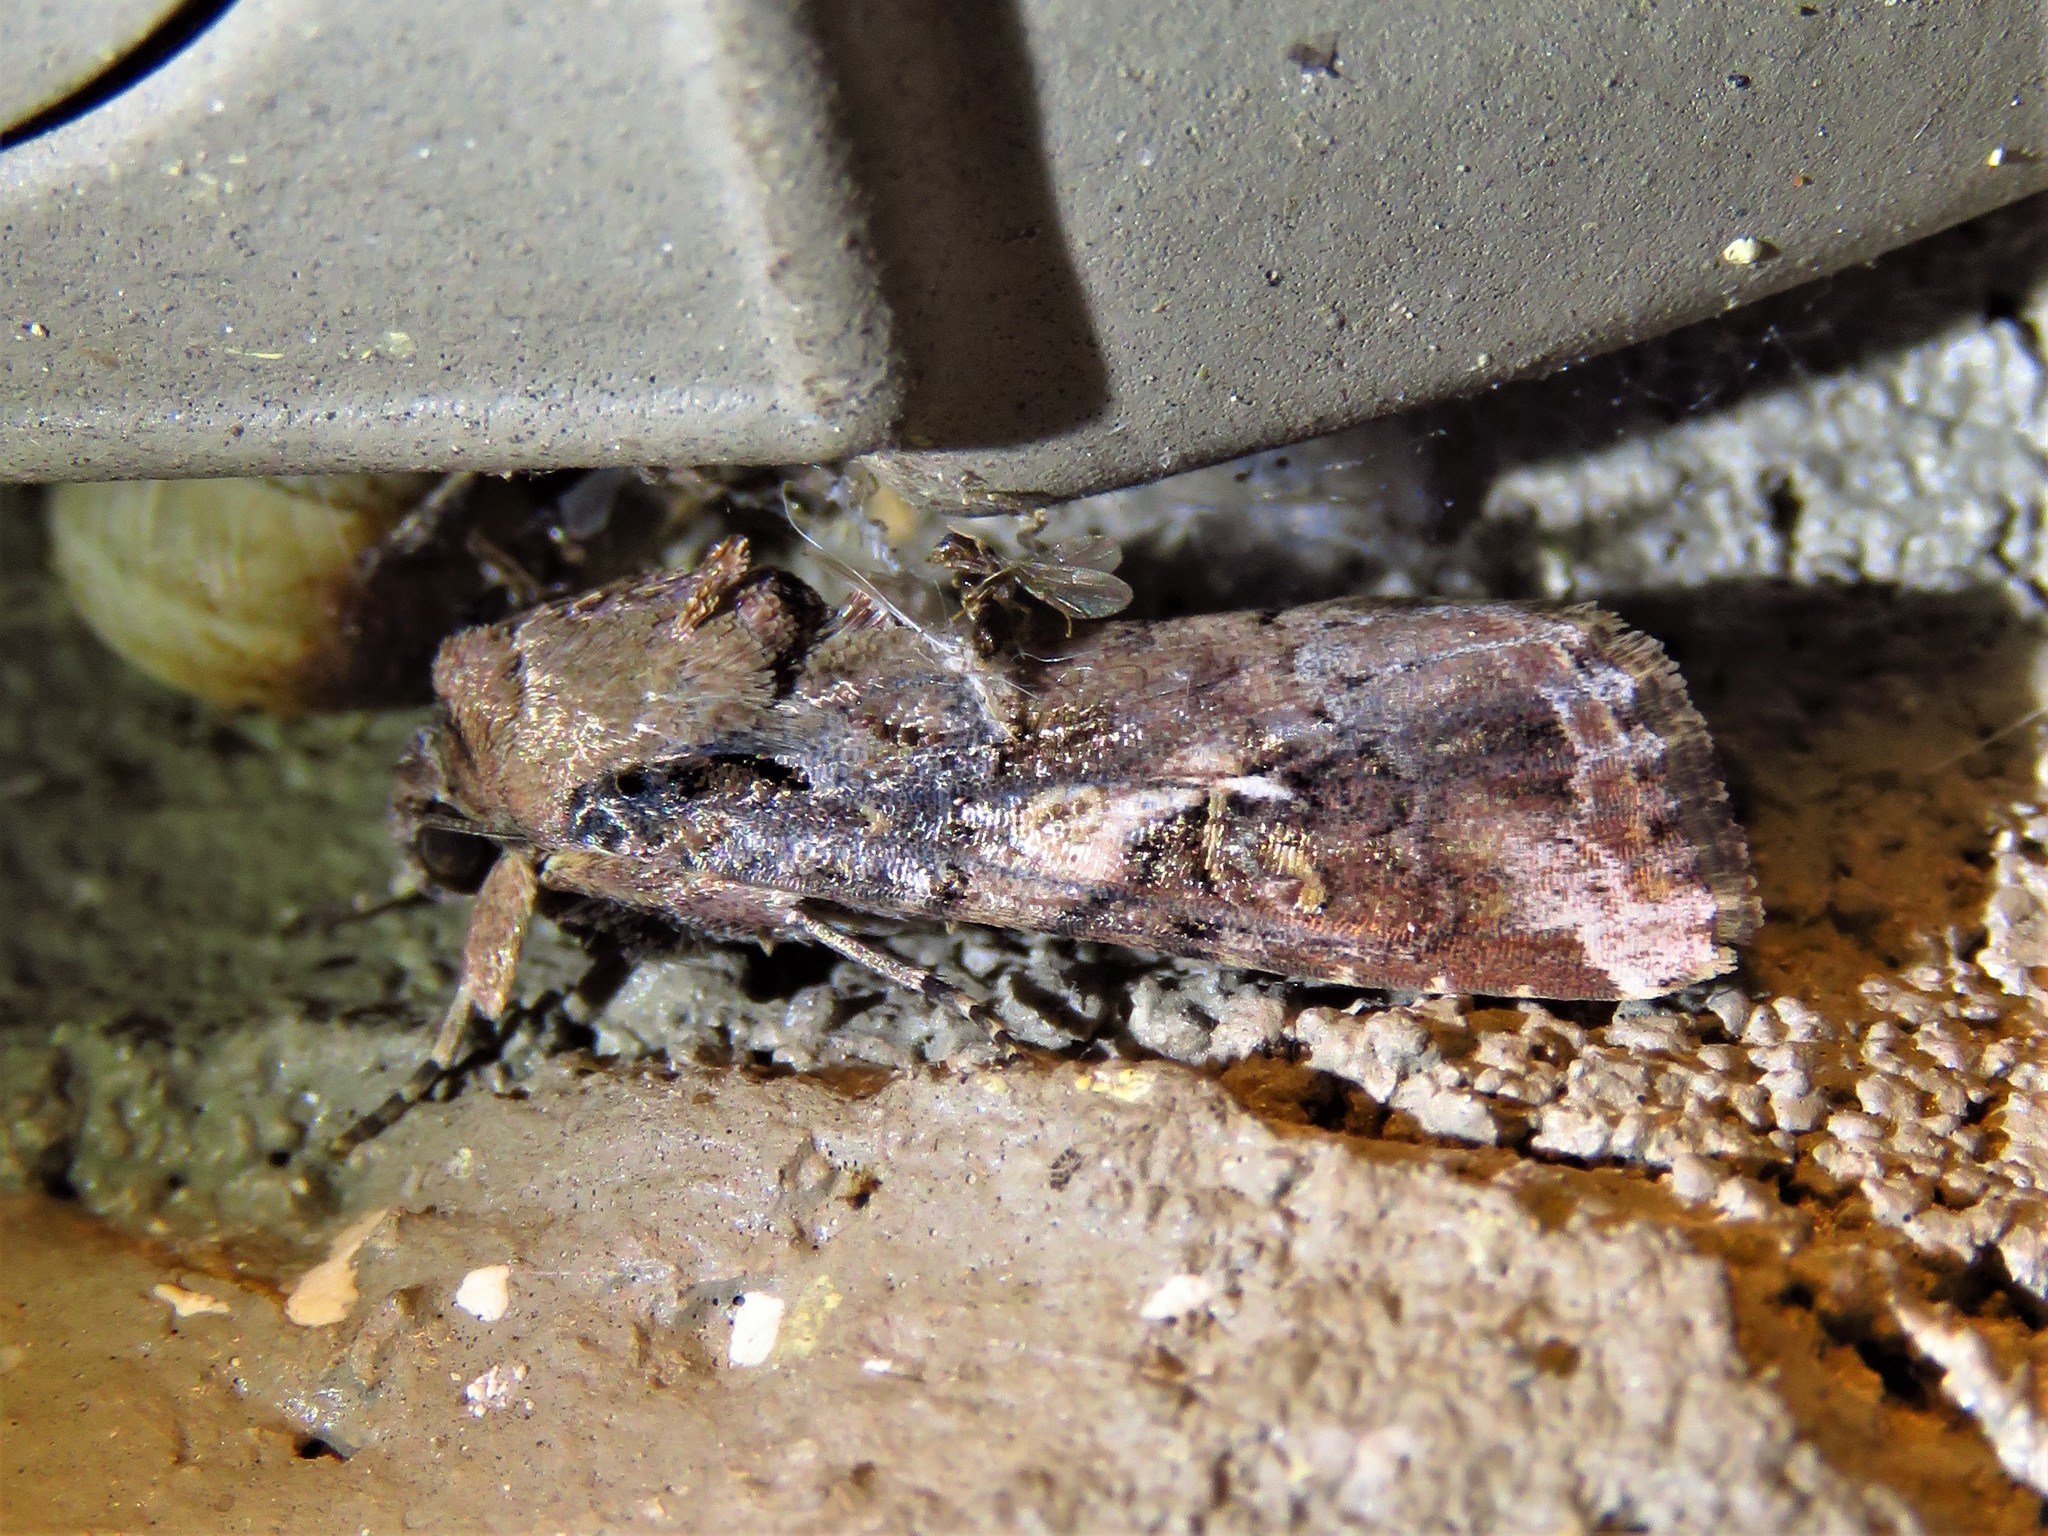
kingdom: Animalia
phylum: Arthropoda
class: Insecta
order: Lepidoptera
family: Noctuidae
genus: Spodoptera
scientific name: Spodoptera frugiperda
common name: Fall armyworm
